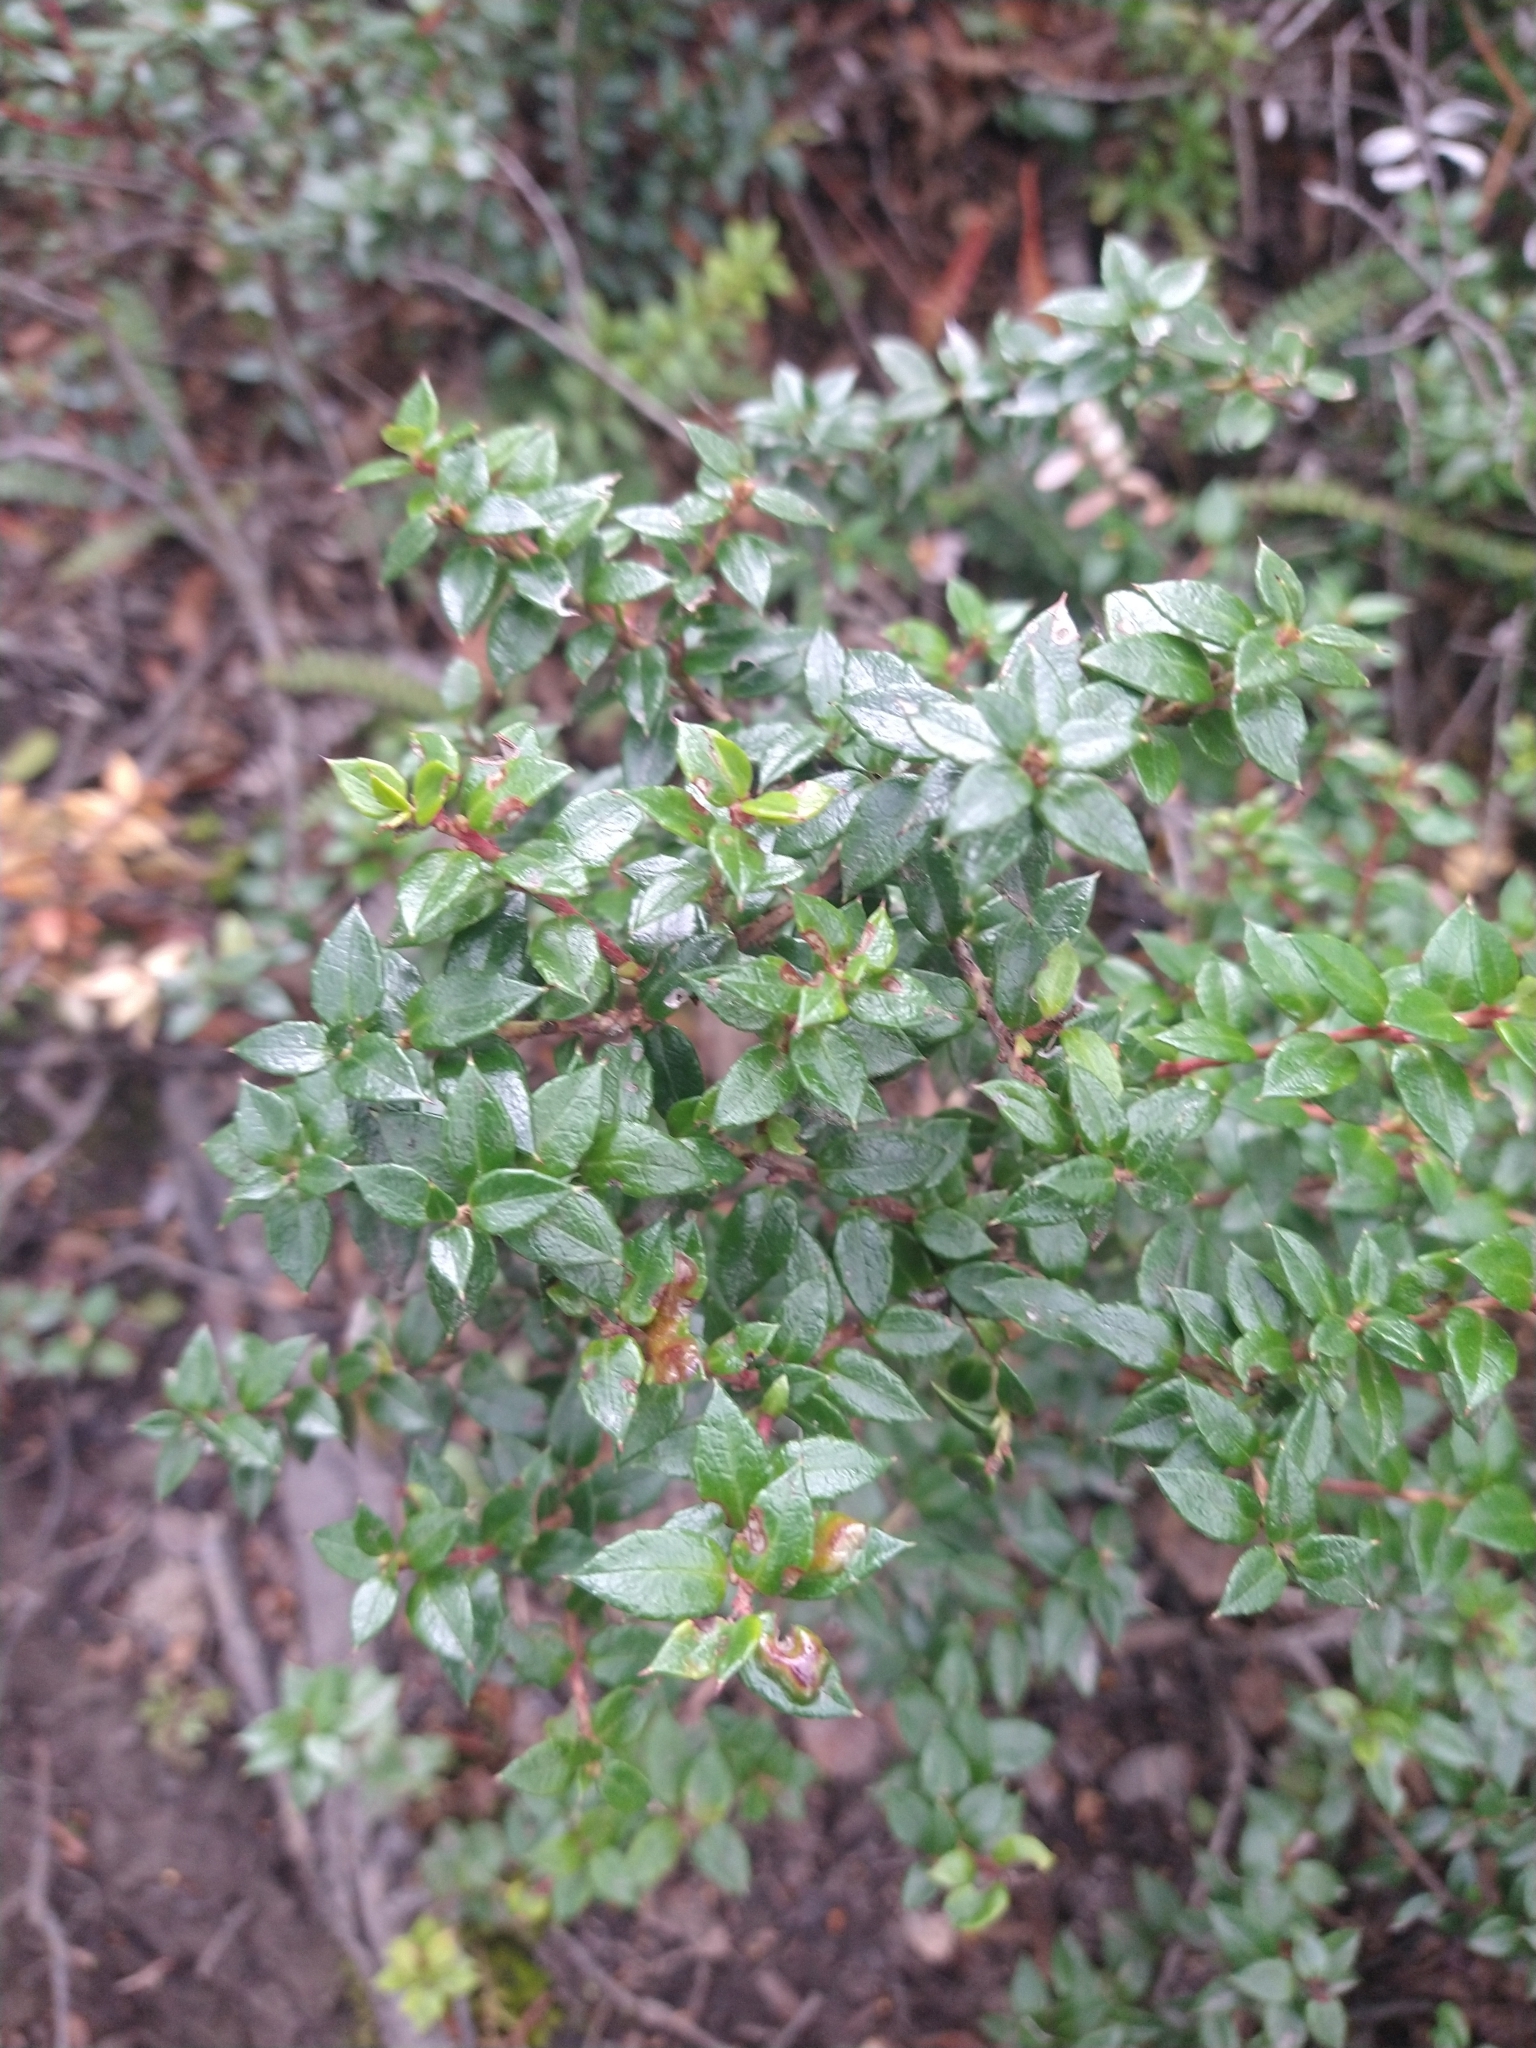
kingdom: Plantae
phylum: Tracheophyta
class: Magnoliopsida
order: Ericales
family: Ericaceae
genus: Gaultheria
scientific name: Gaultheria mucronata
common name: Prickly heath
